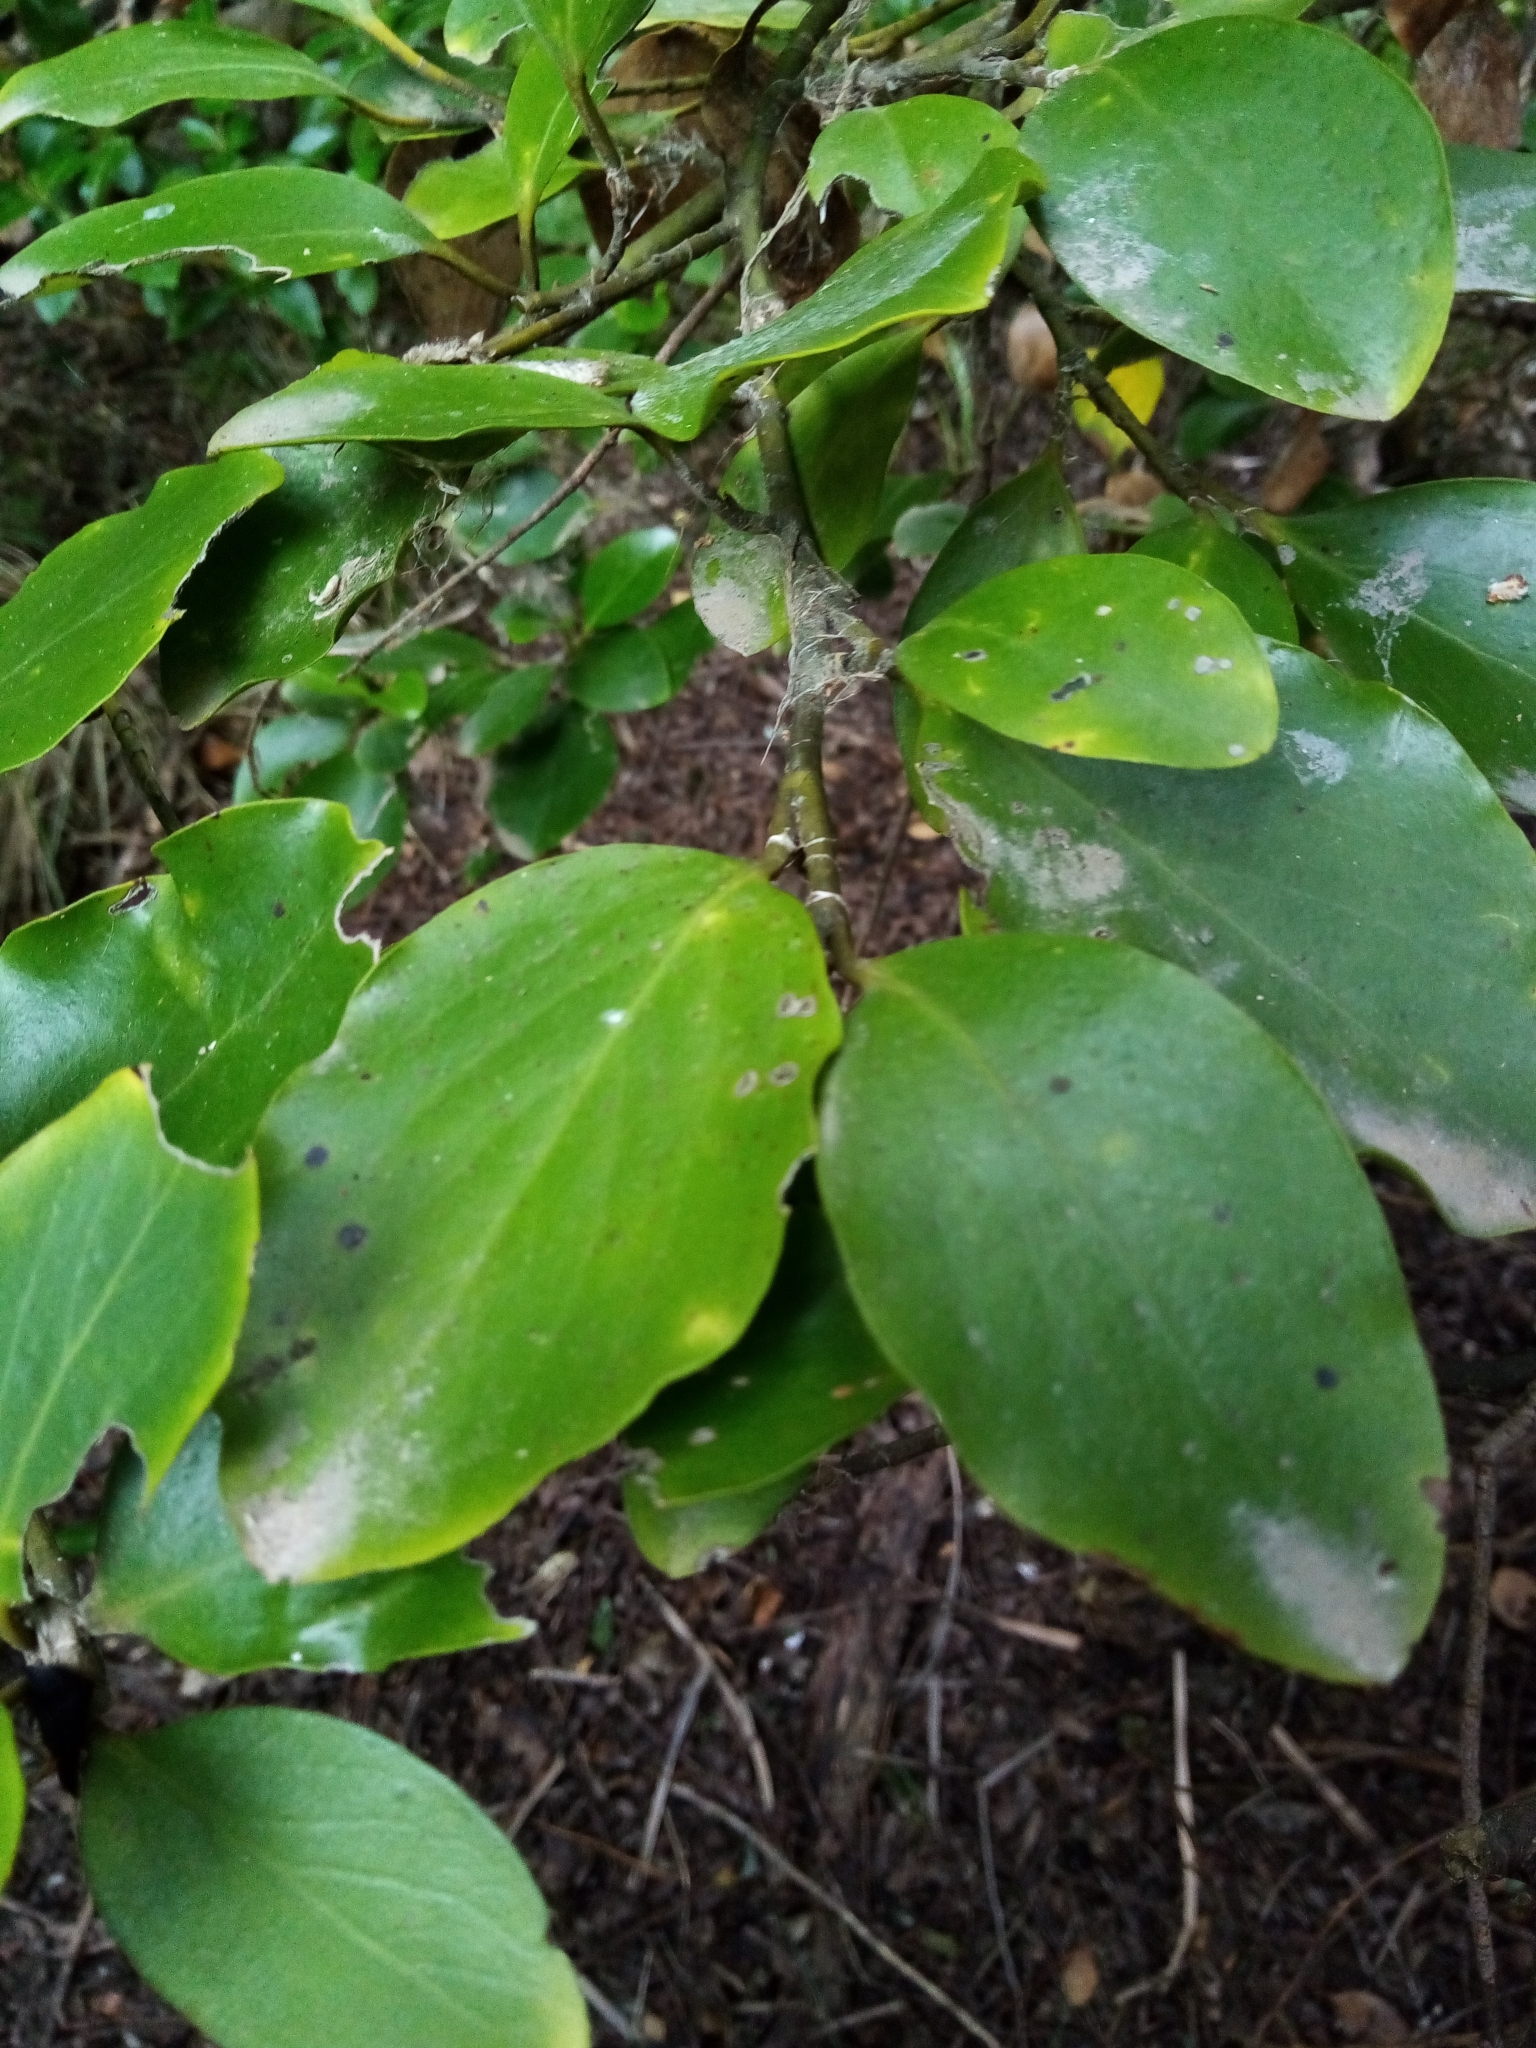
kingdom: Plantae
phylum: Tracheophyta
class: Magnoliopsida
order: Apiales
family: Griseliniaceae
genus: Griselinia
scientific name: Griselinia littoralis
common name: New zealand broadleaf
